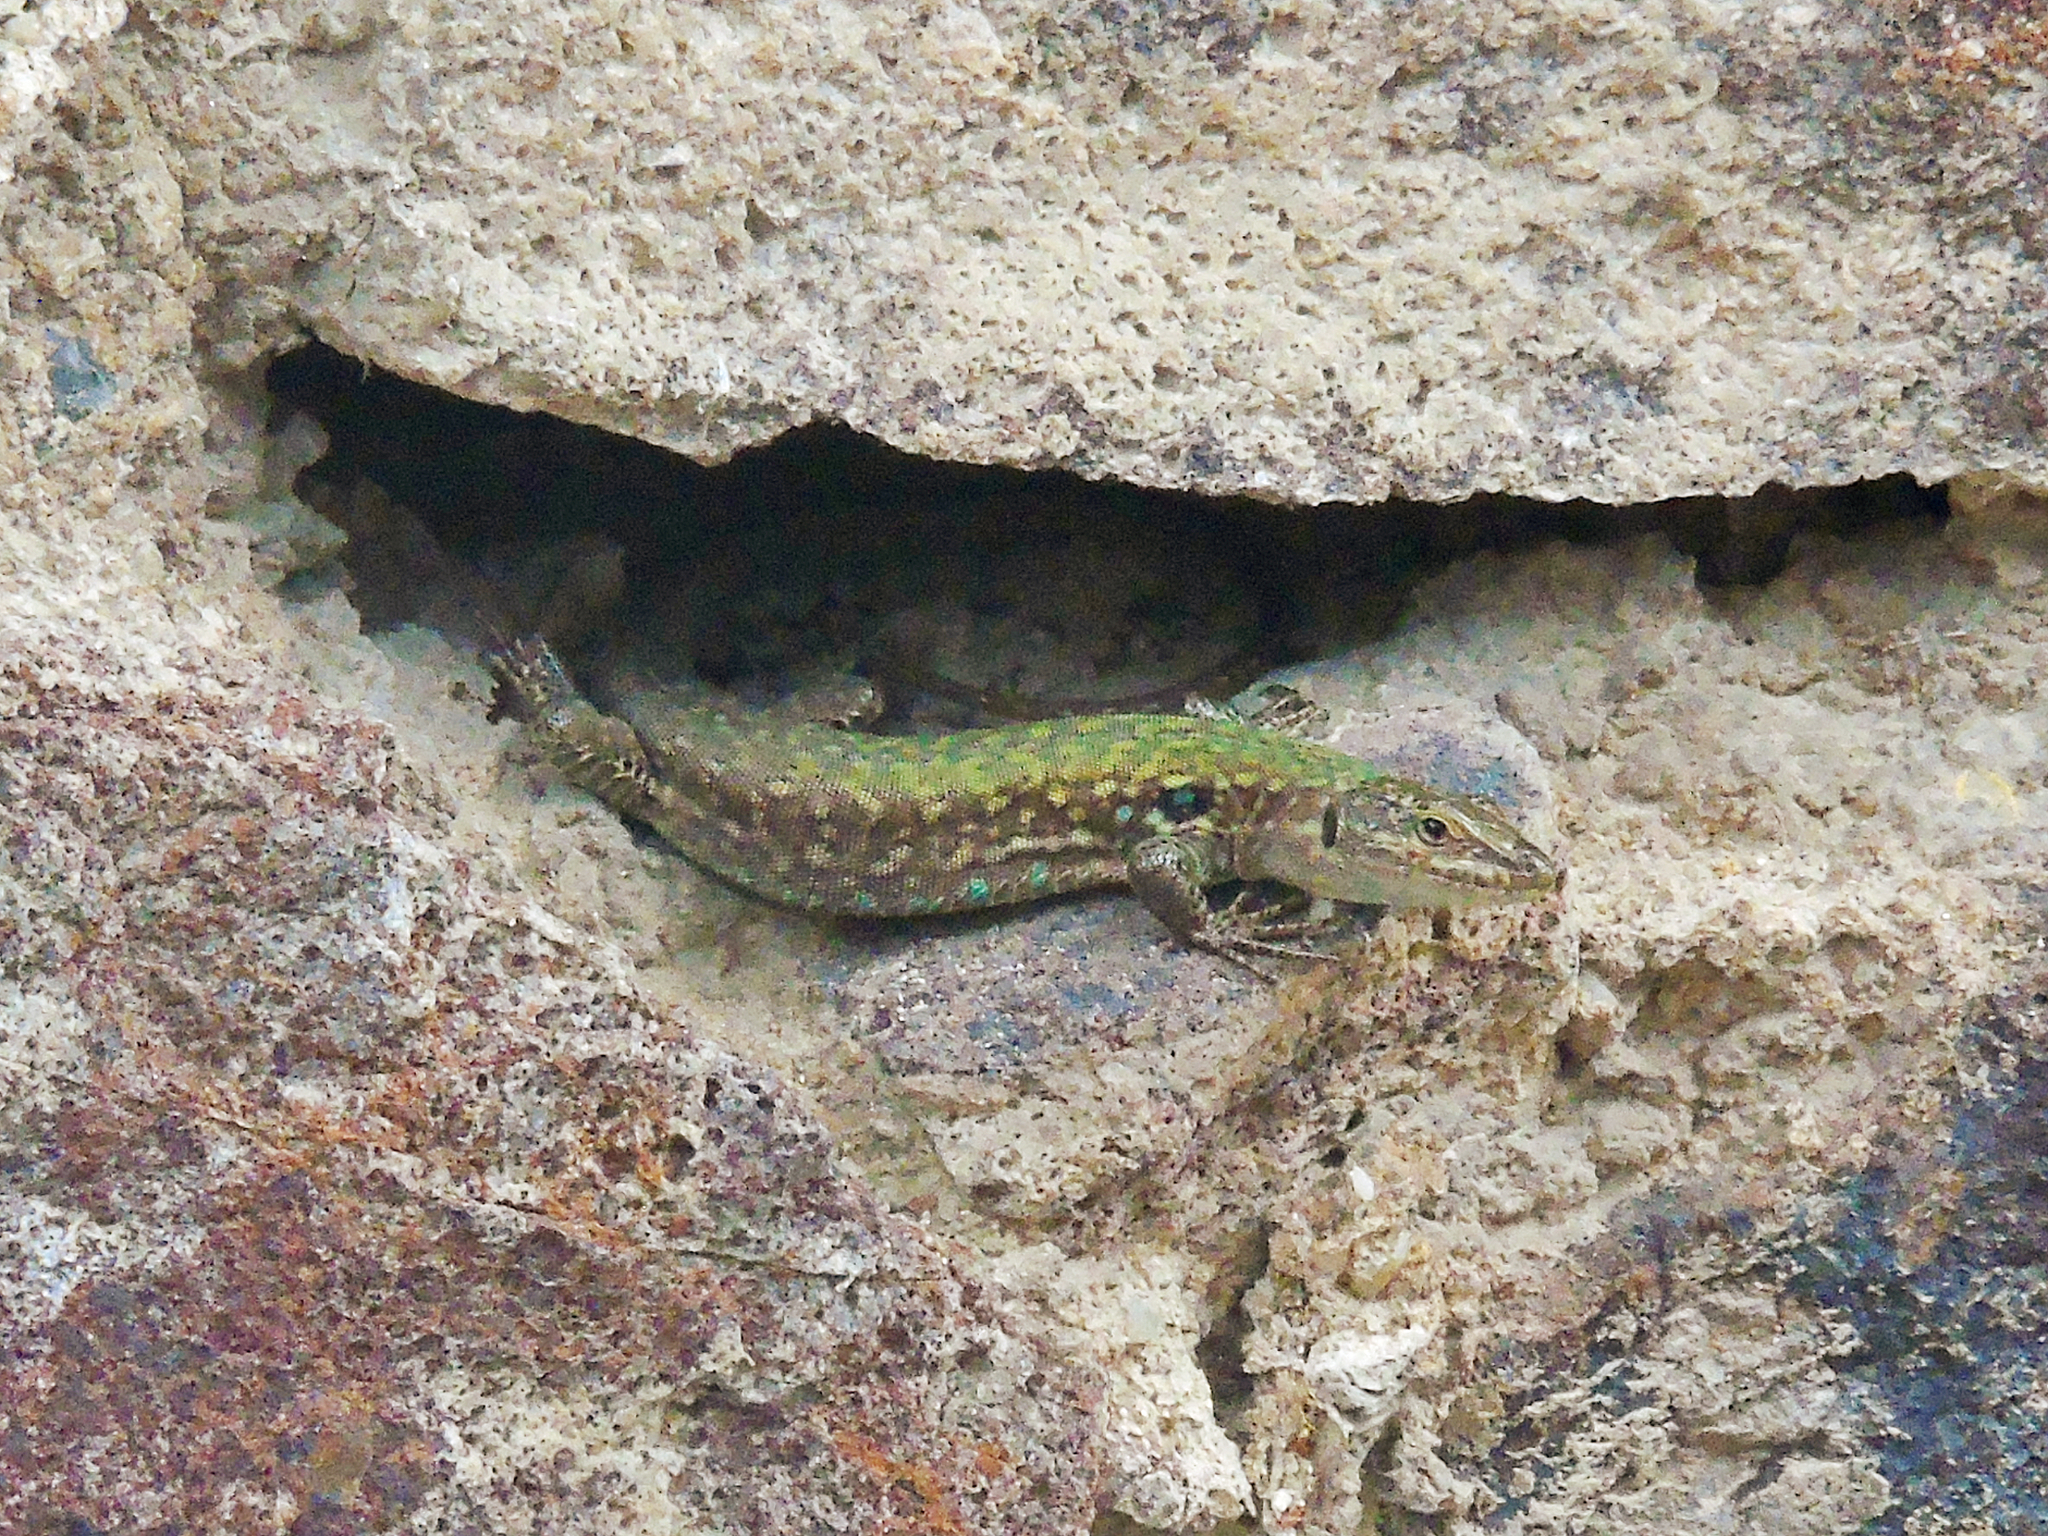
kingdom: Animalia
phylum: Chordata
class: Squamata
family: Lacertidae
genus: Podarcis
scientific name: Podarcis siculus
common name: Italian wall lizard
